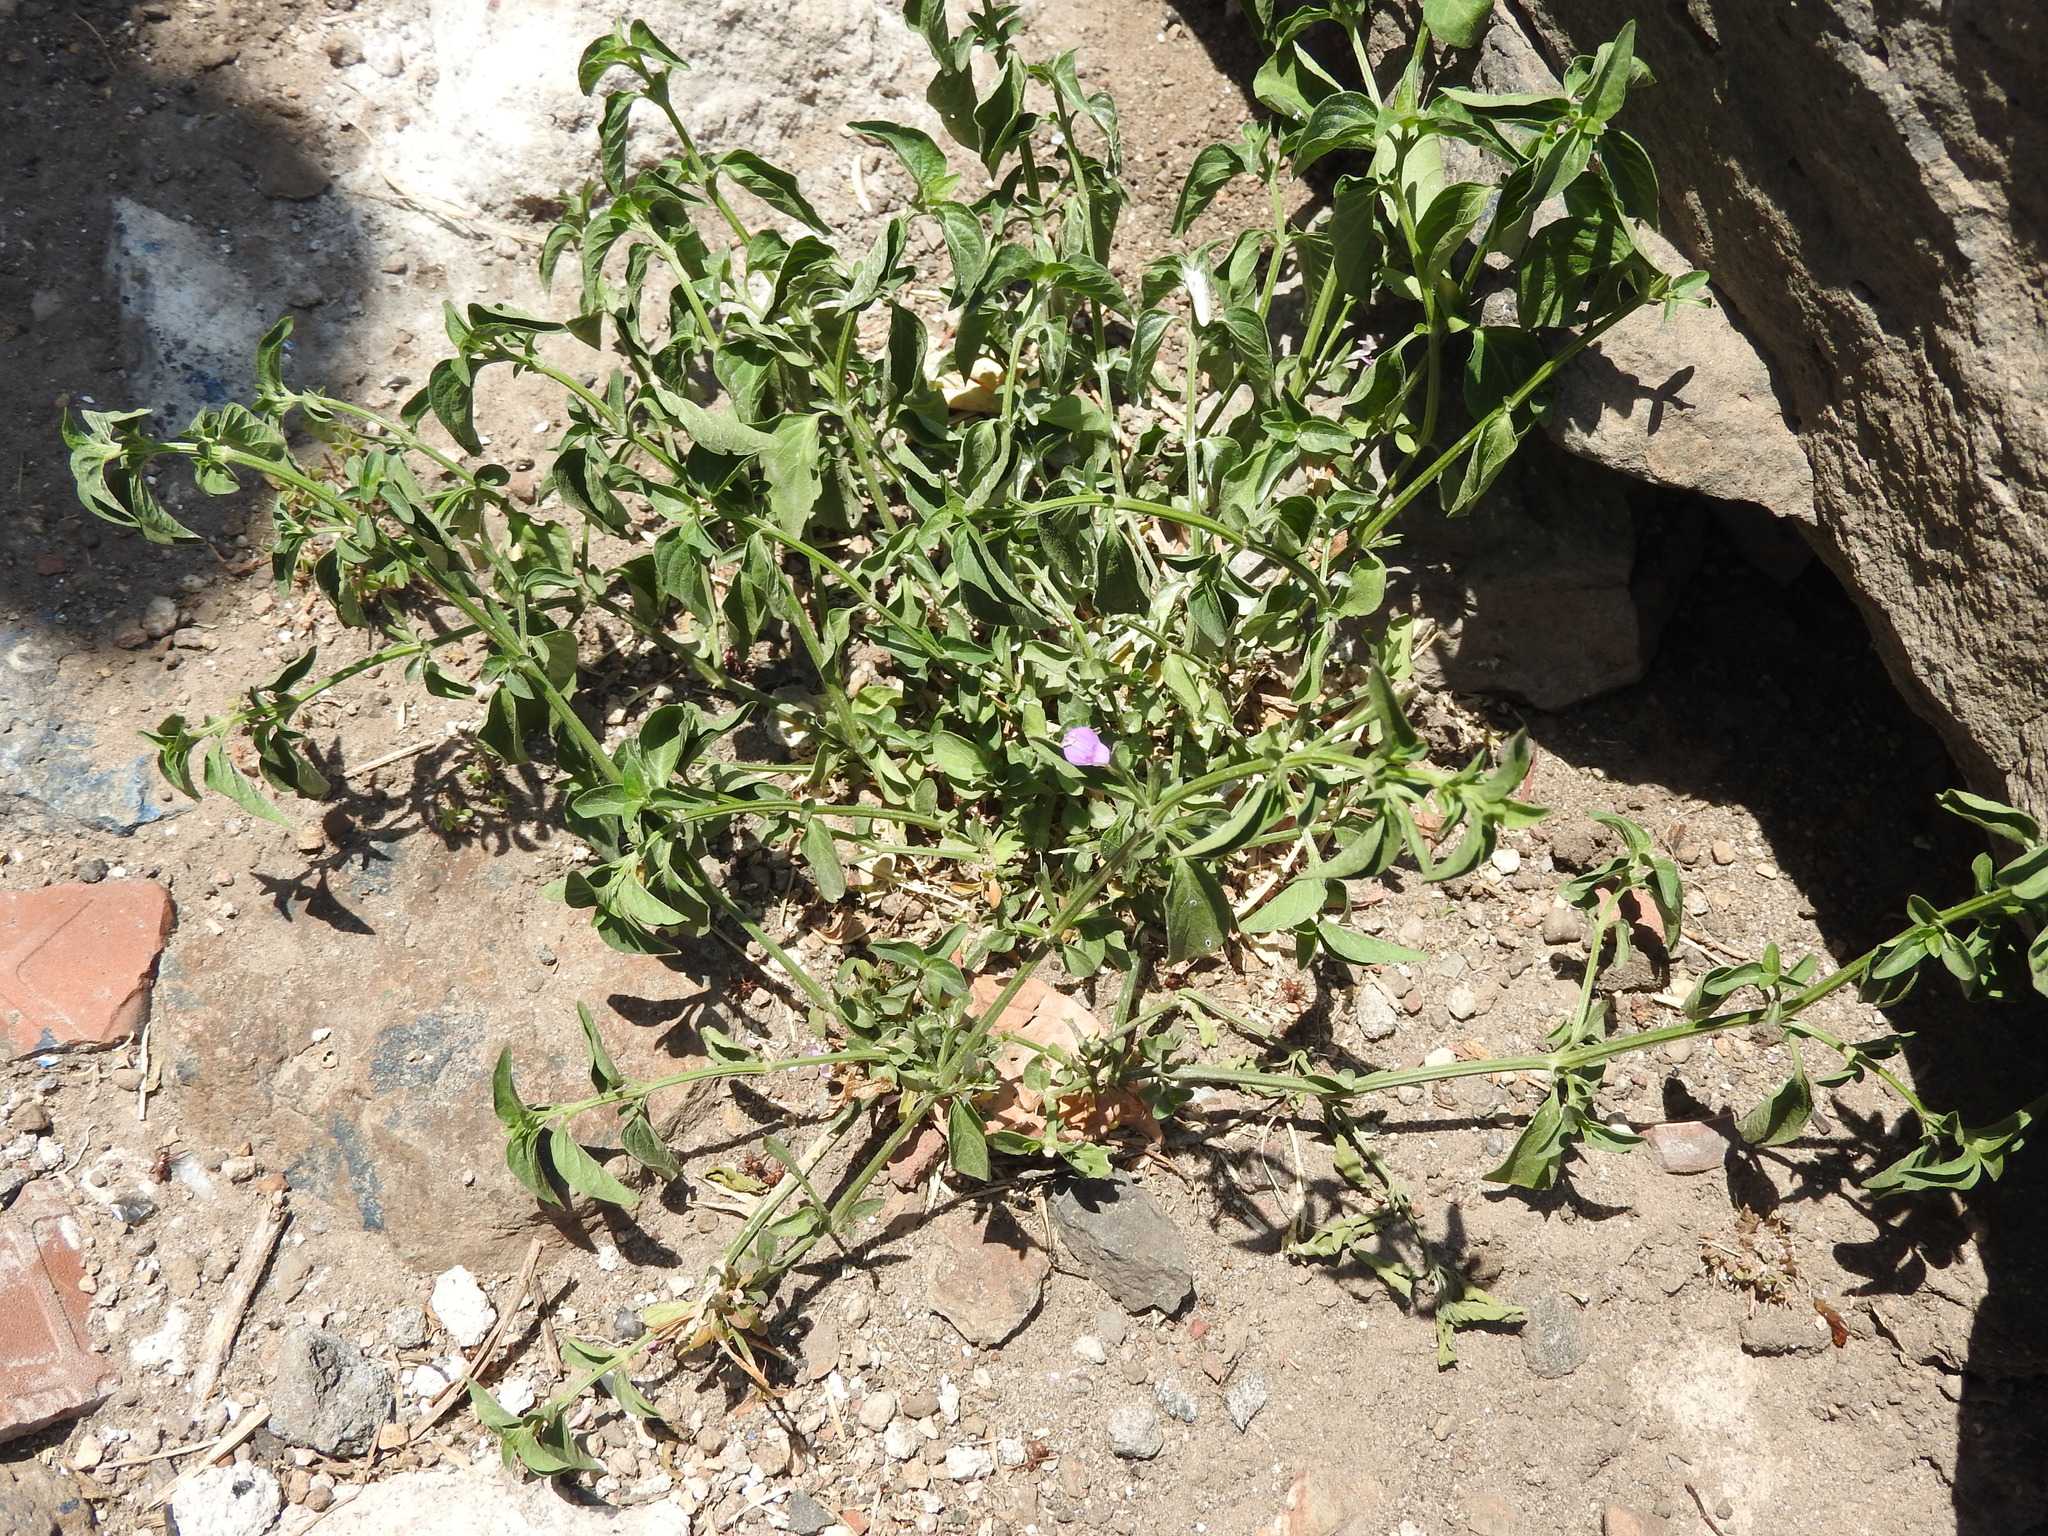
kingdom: Plantae
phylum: Tracheophyta
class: Magnoliopsida
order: Lamiales
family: Acanthaceae
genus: Dicliptera
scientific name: Dicliptera peduncularis
